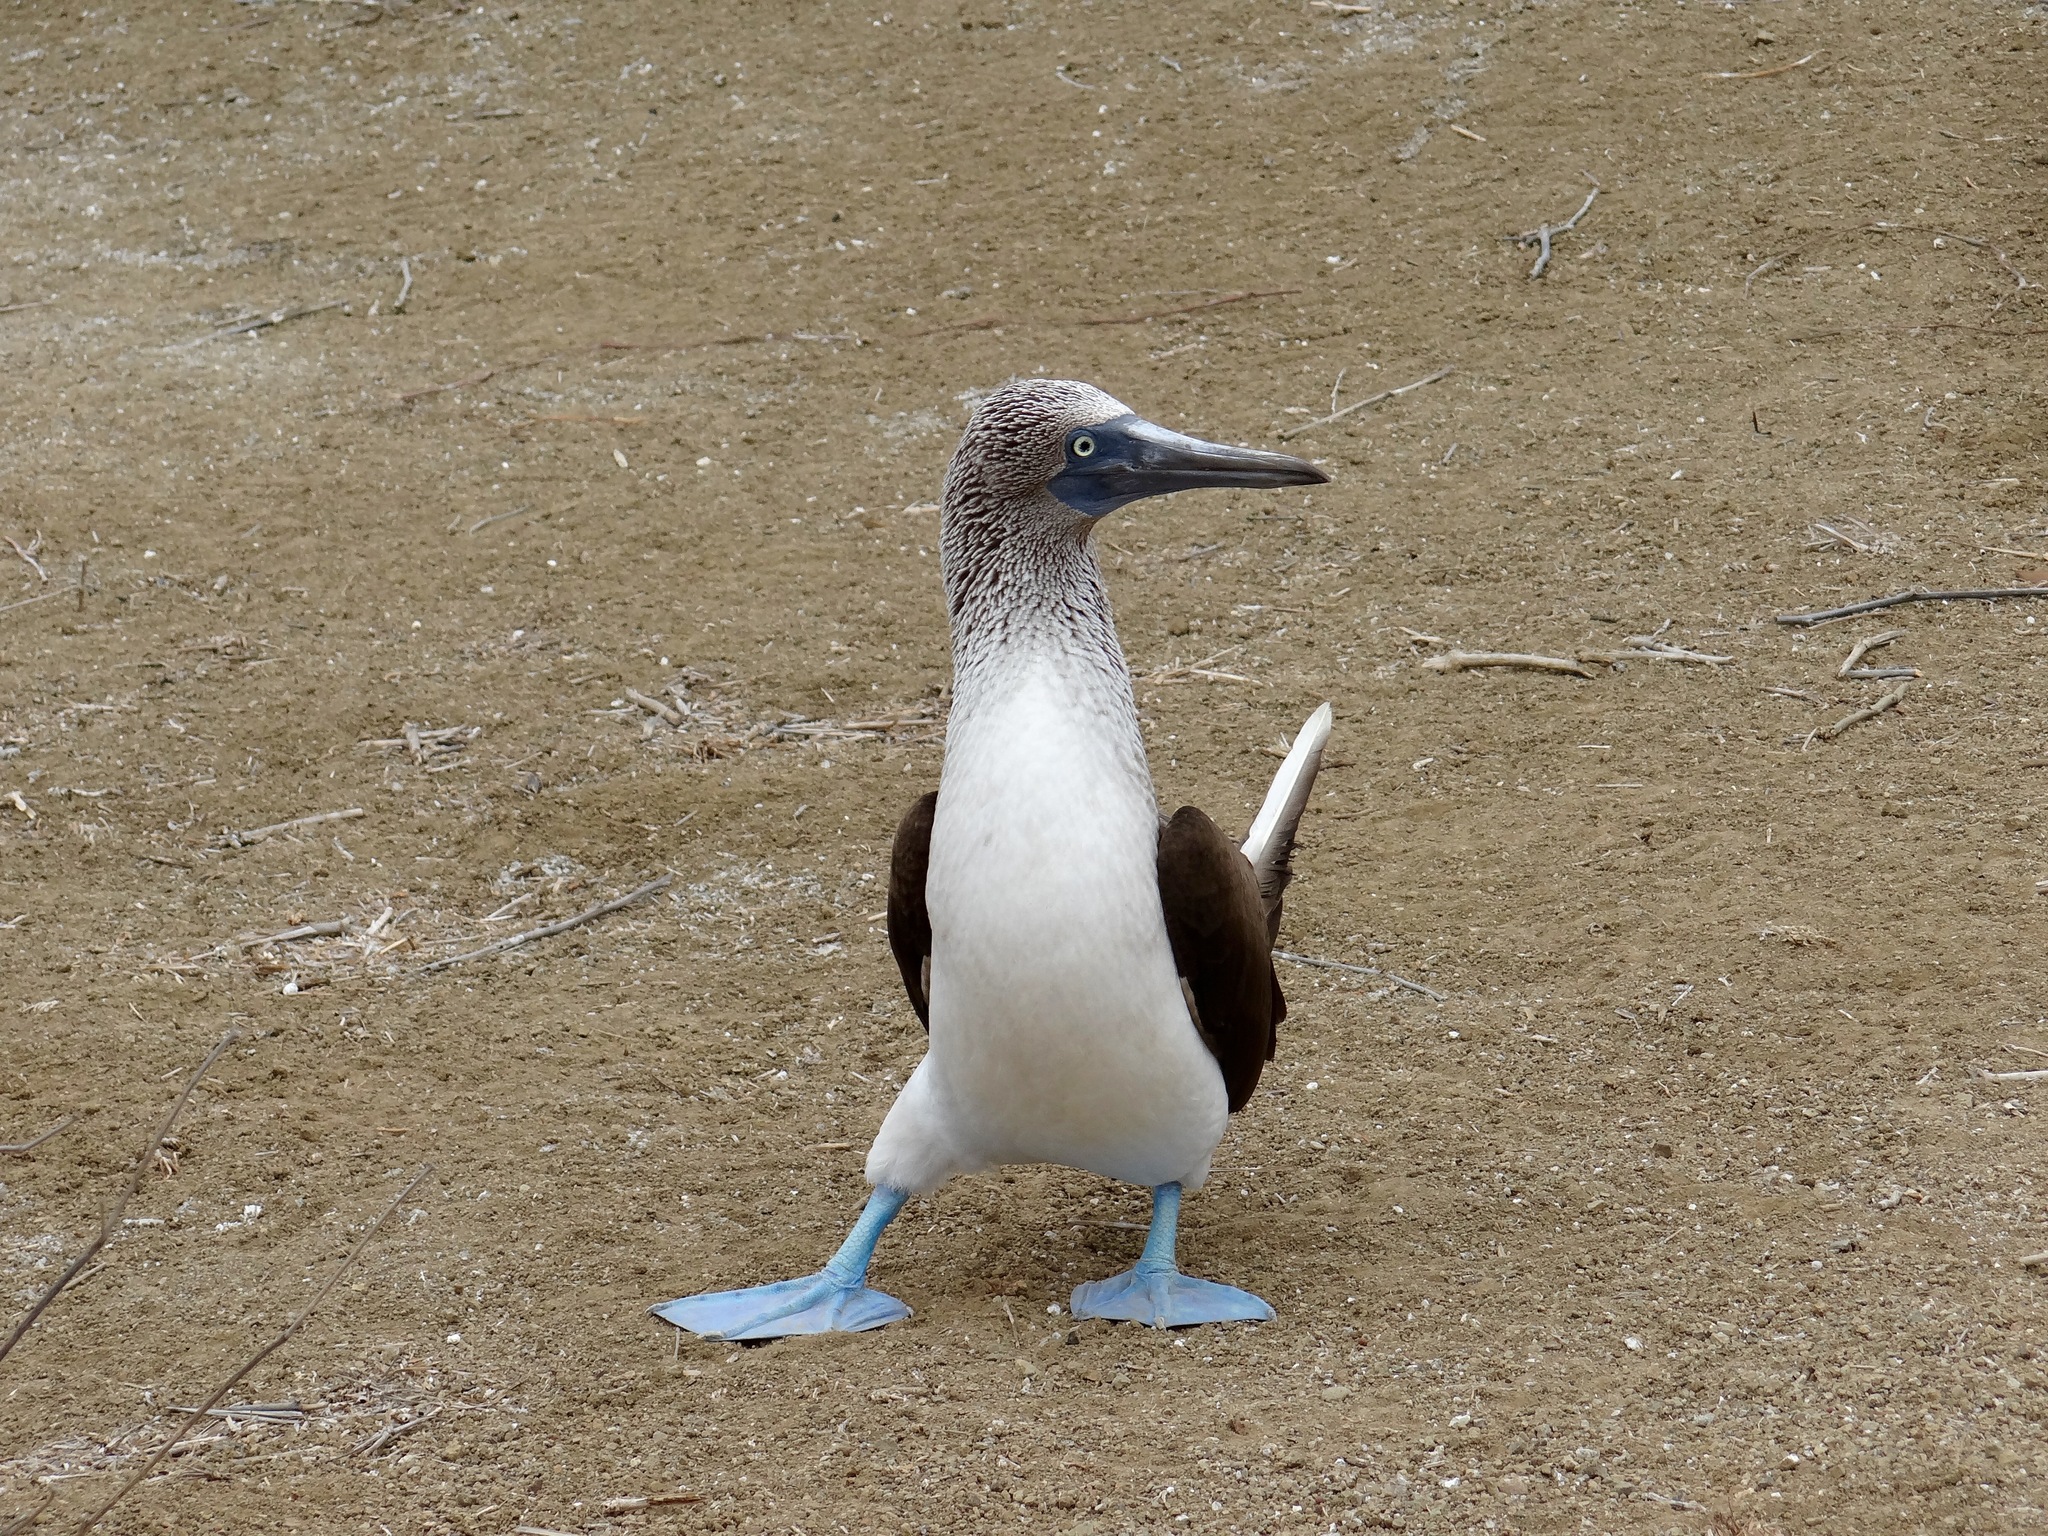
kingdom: Animalia
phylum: Chordata
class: Aves
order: Suliformes
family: Sulidae
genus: Sula
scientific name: Sula nebouxii
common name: Blue-footed booby
